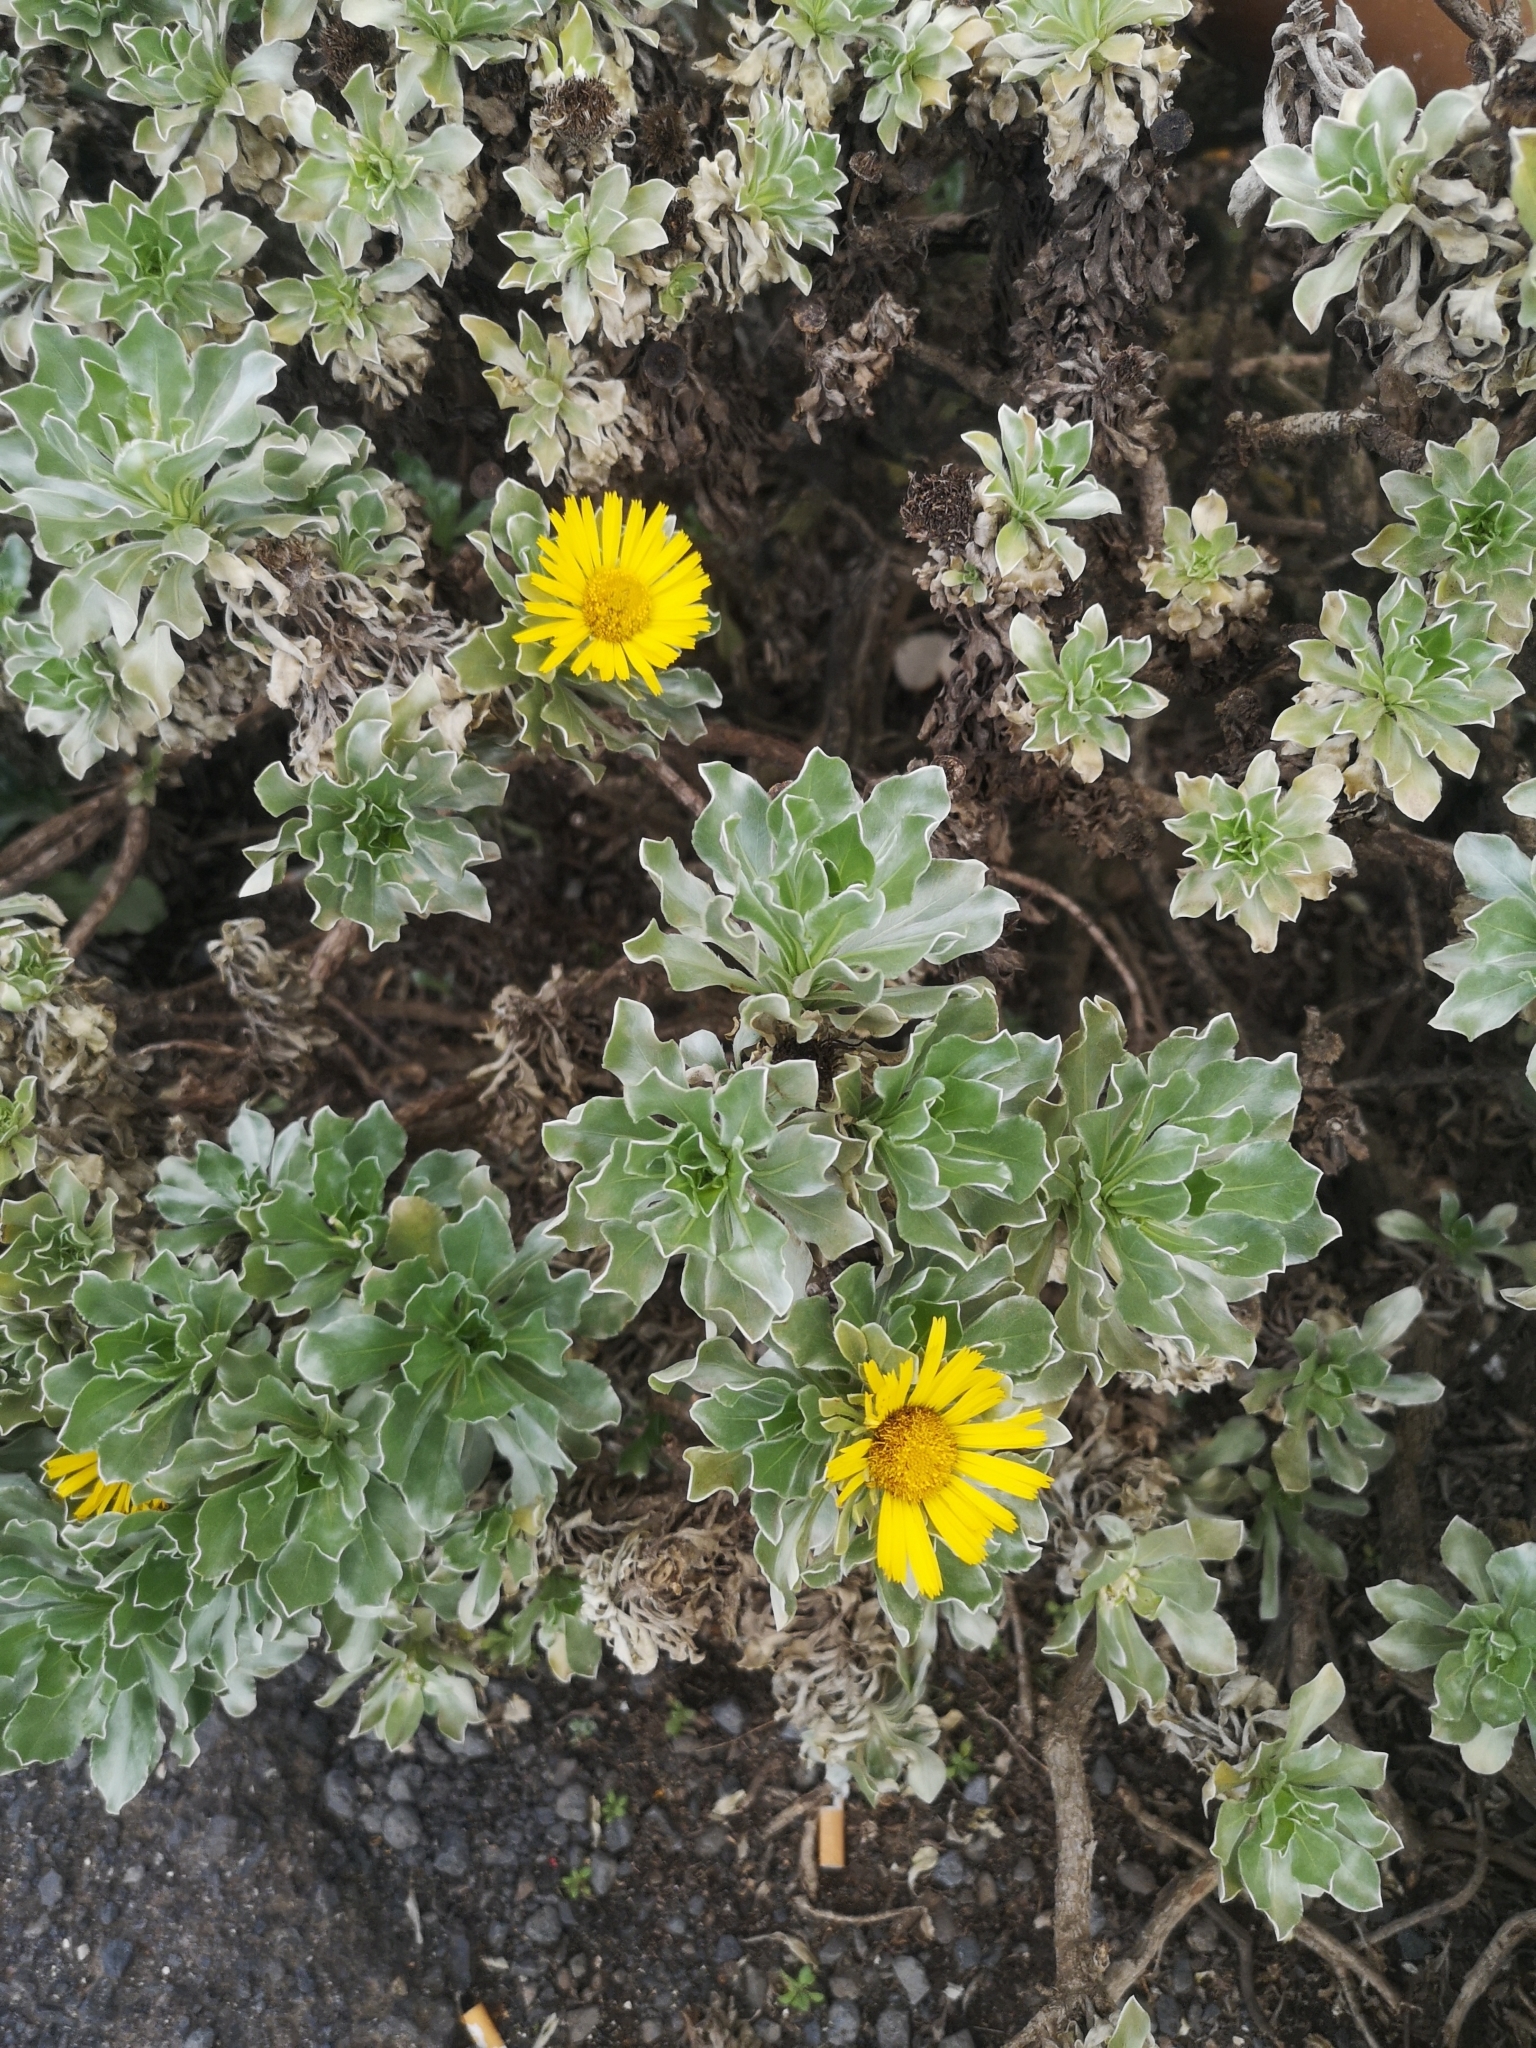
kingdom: Plantae
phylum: Tracheophyta
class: Magnoliopsida
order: Asterales
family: Asteraceae
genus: Asteriscus
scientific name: Asteriscus sericeus
